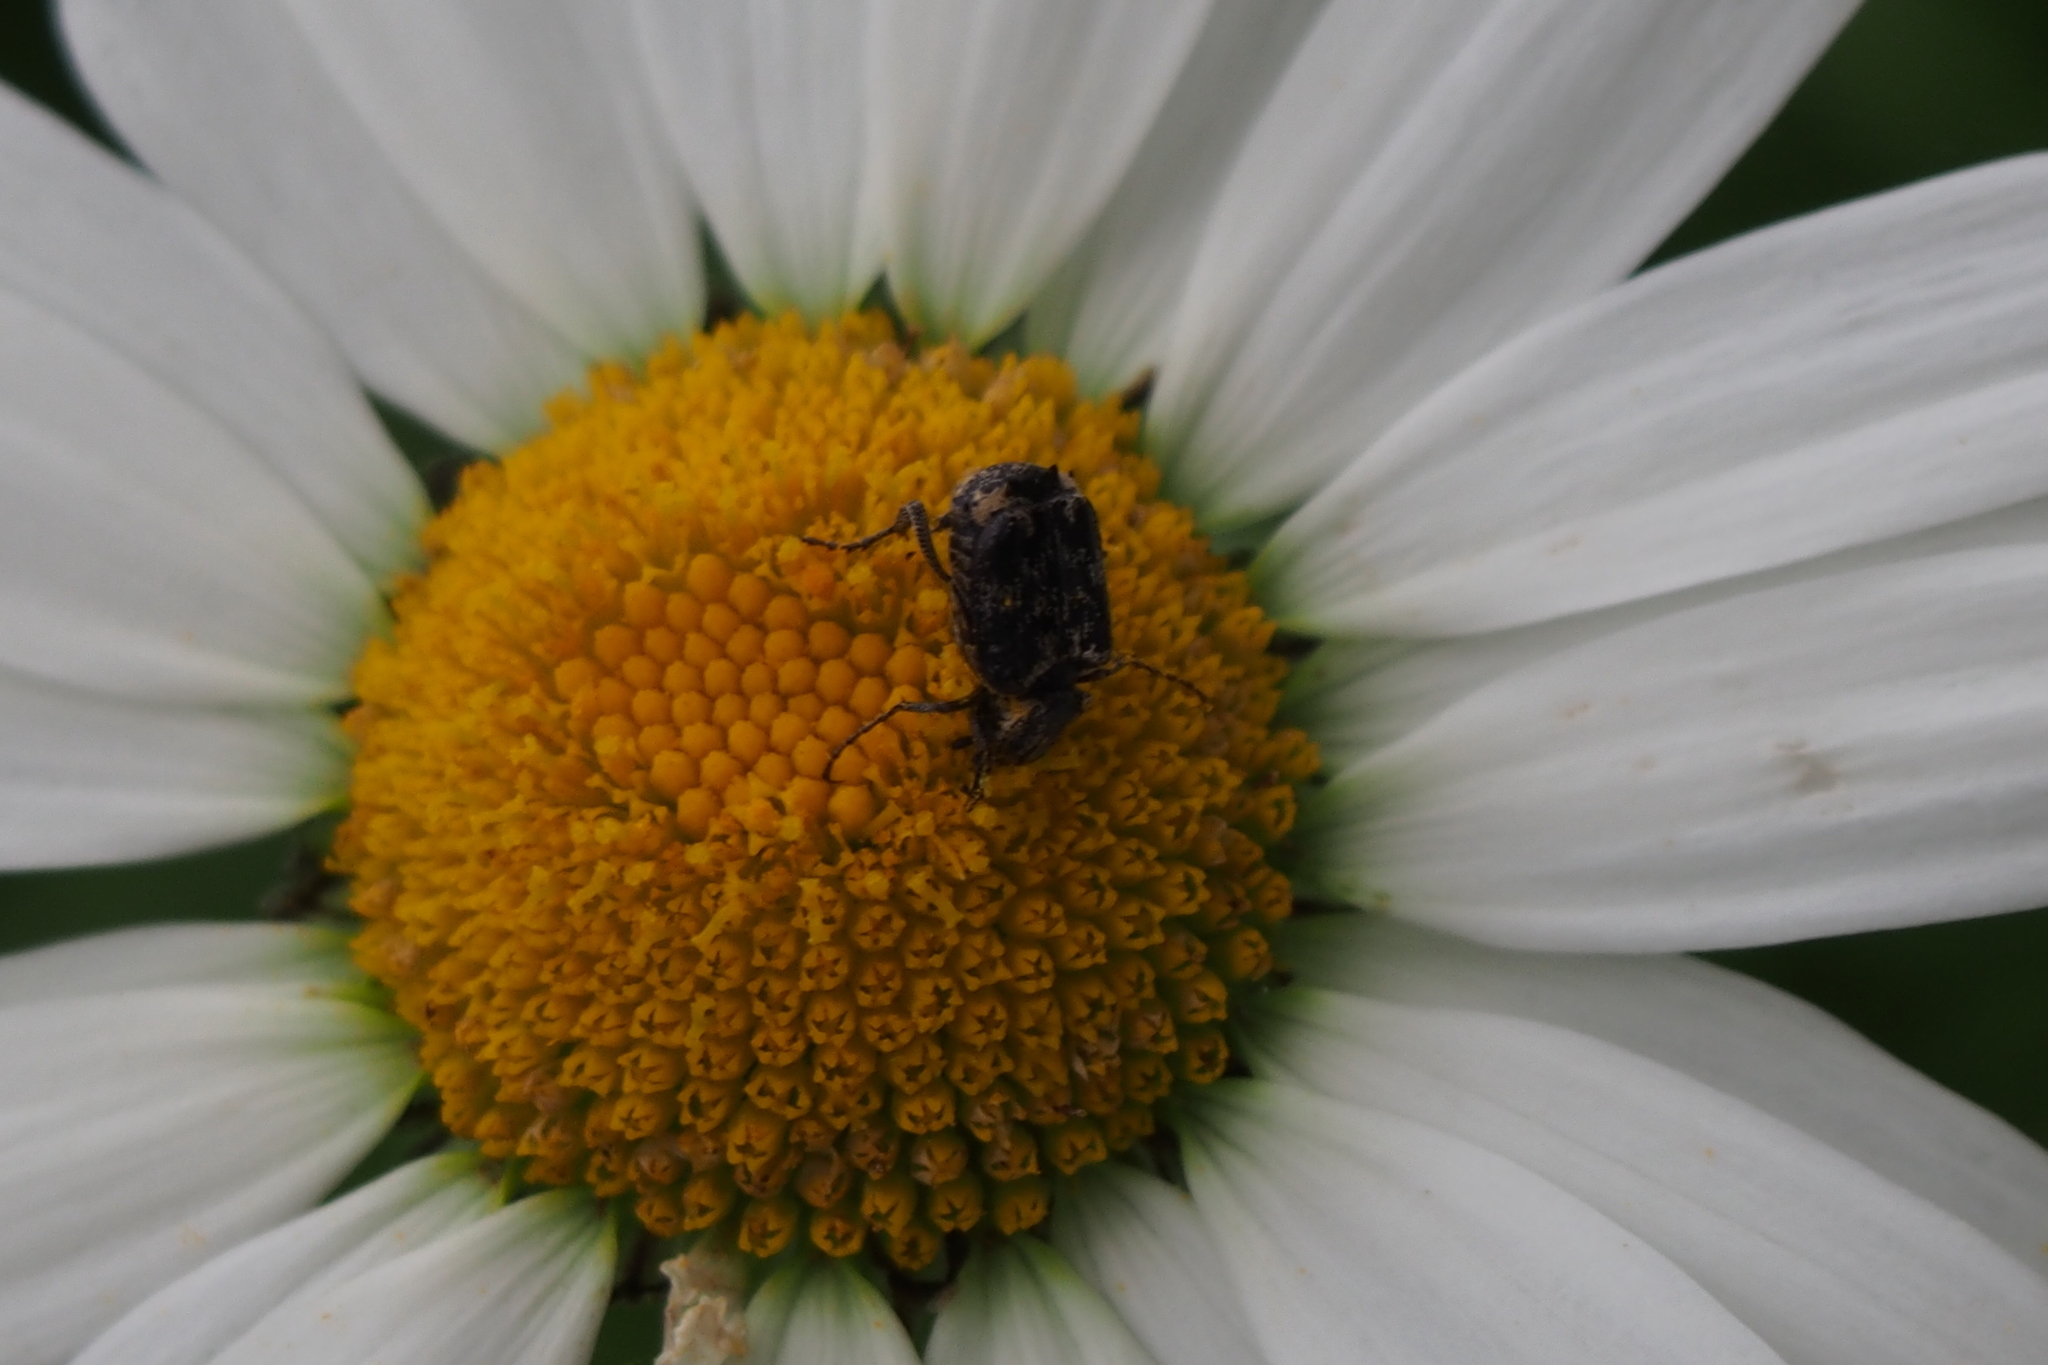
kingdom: Animalia
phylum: Arthropoda
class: Insecta
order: Coleoptera
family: Scarabaeidae
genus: Nipponovalgus
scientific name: Nipponovalgus angusticollis
